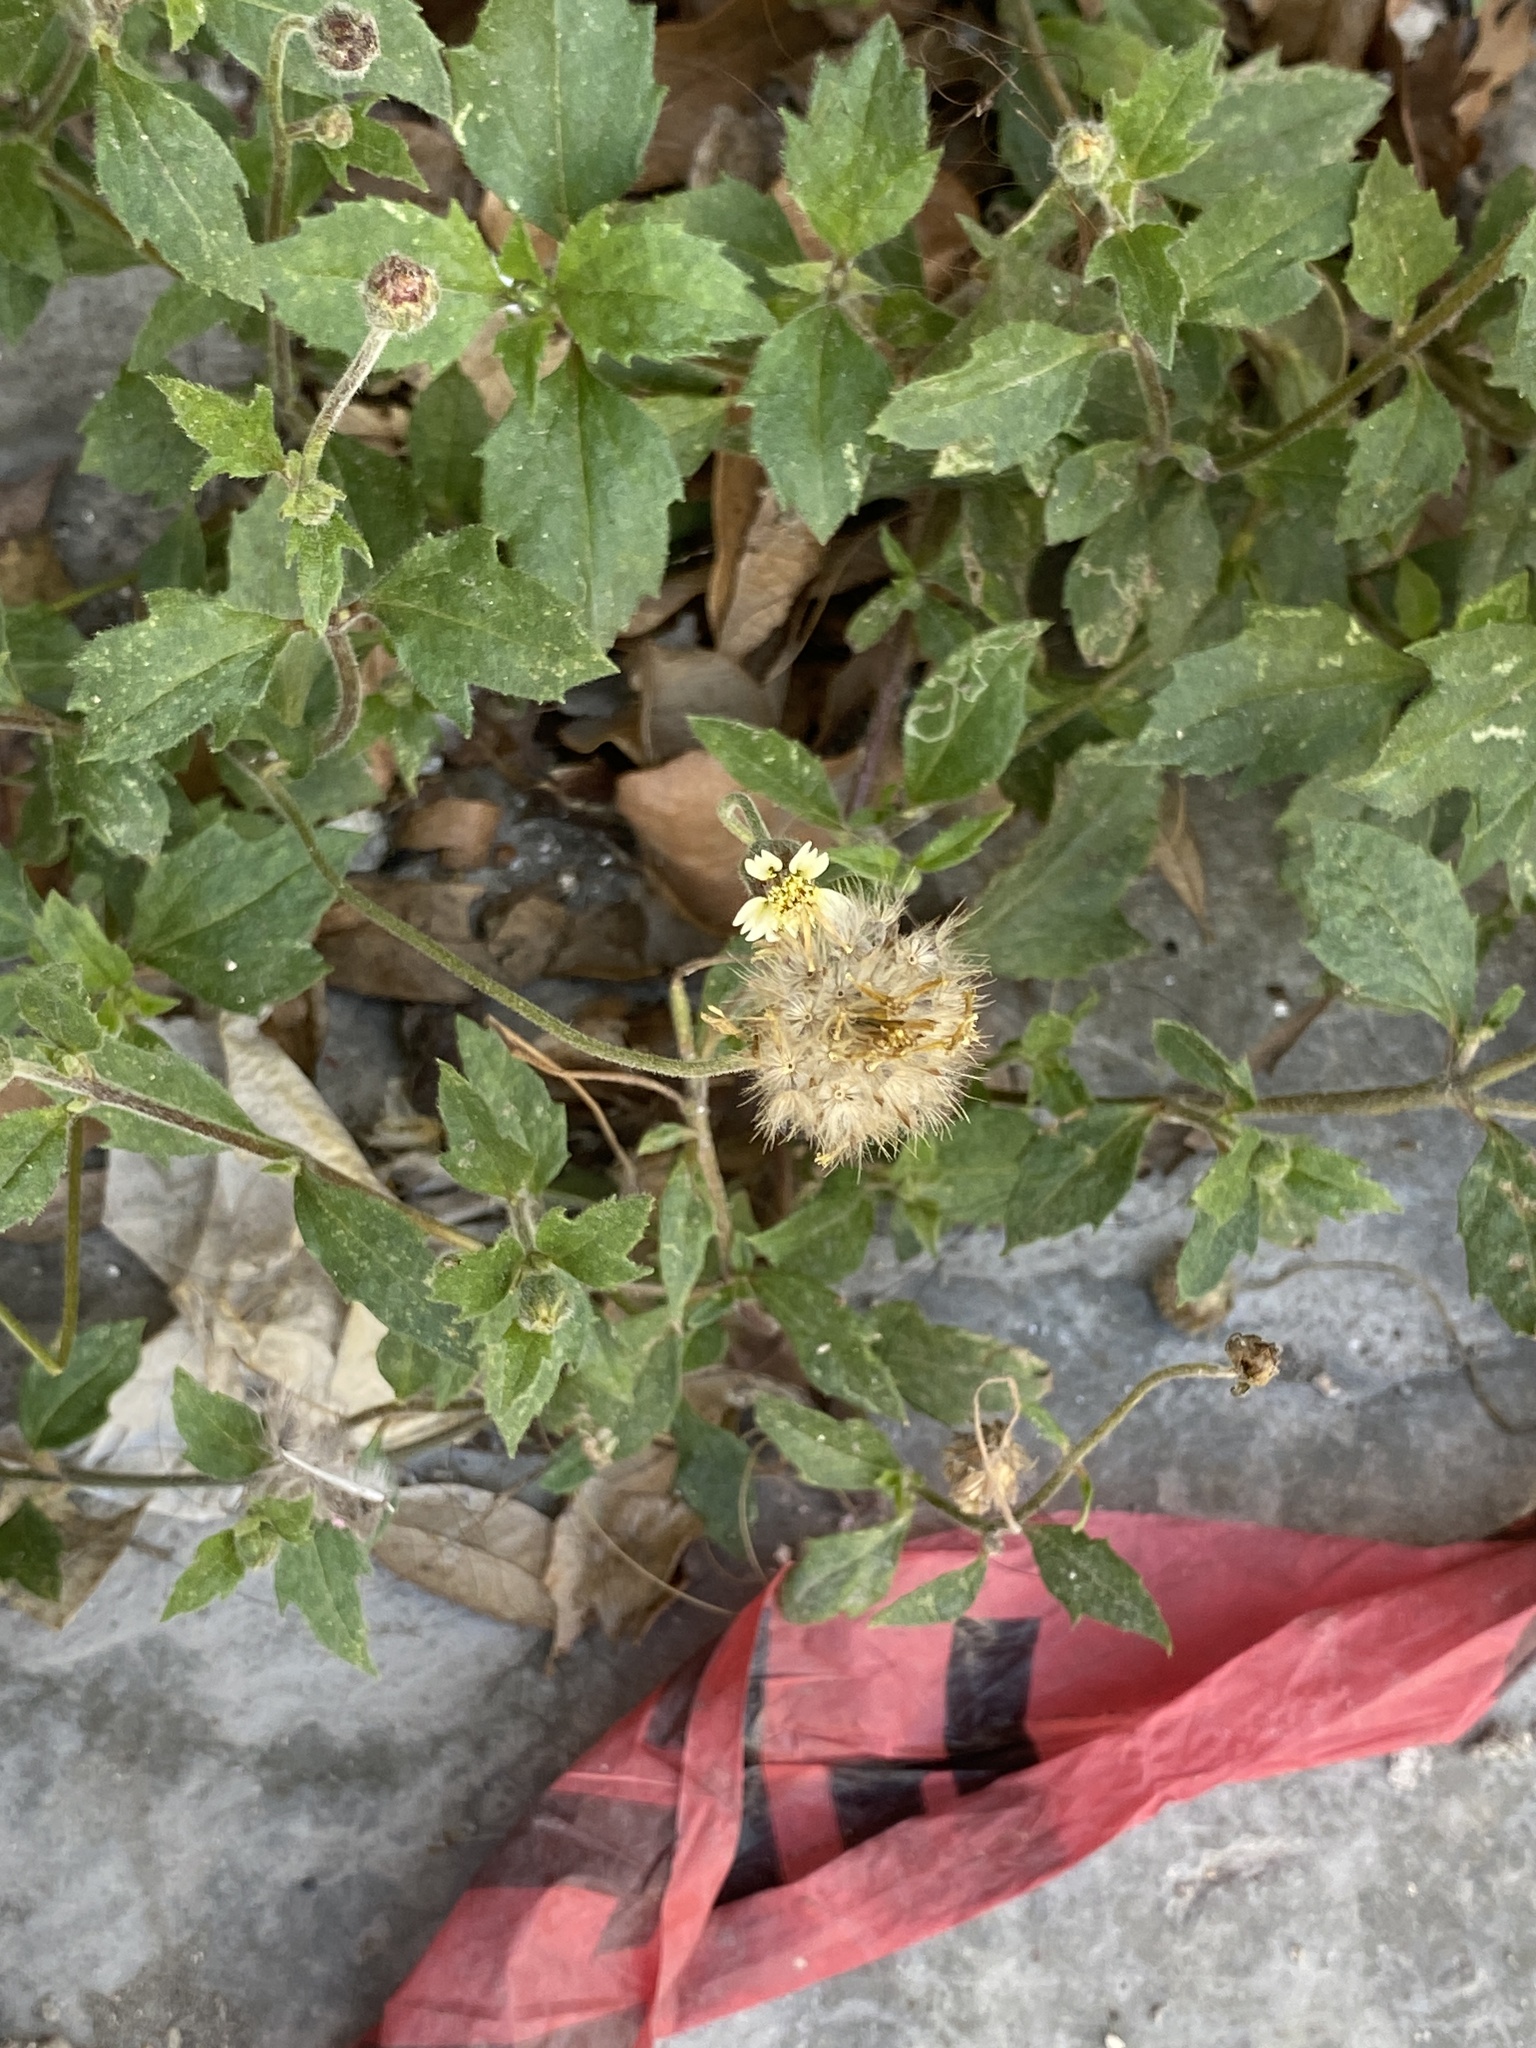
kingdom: Plantae
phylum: Tracheophyta
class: Magnoliopsida
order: Asterales
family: Asteraceae
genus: Tridax
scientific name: Tridax procumbens
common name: Coatbuttons
